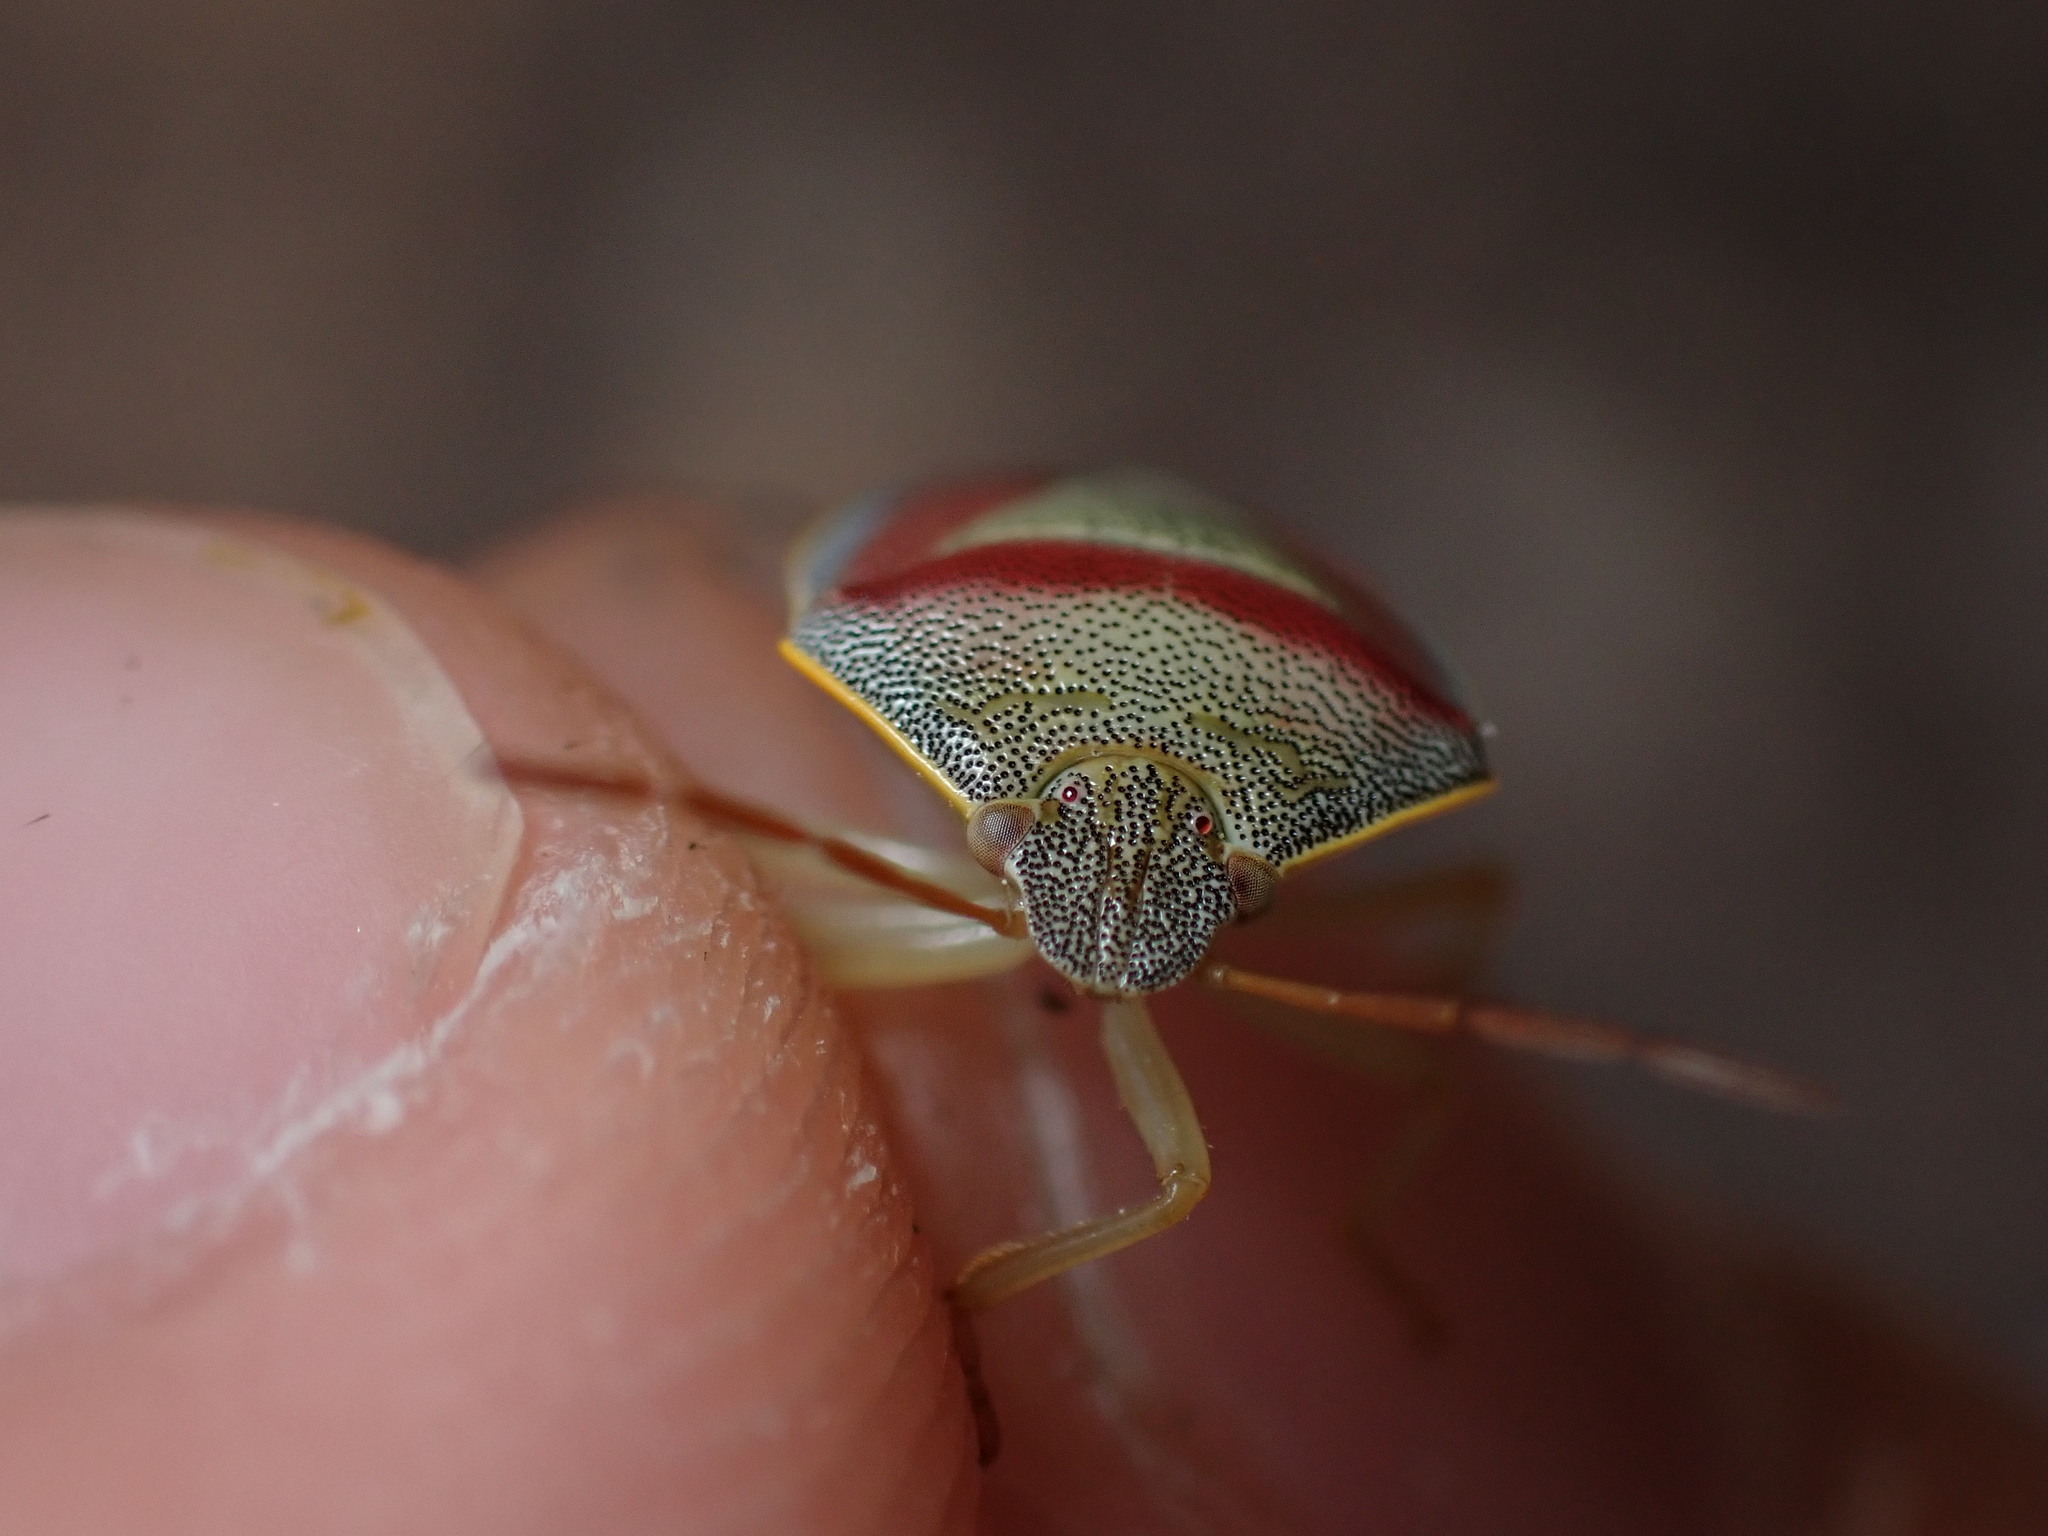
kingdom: Animalia
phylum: Arthropoda
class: Insecta
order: Hemiptera
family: Pentatomidae
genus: Piezodorus
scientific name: Piezodorus lituratus
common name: Stink bug
